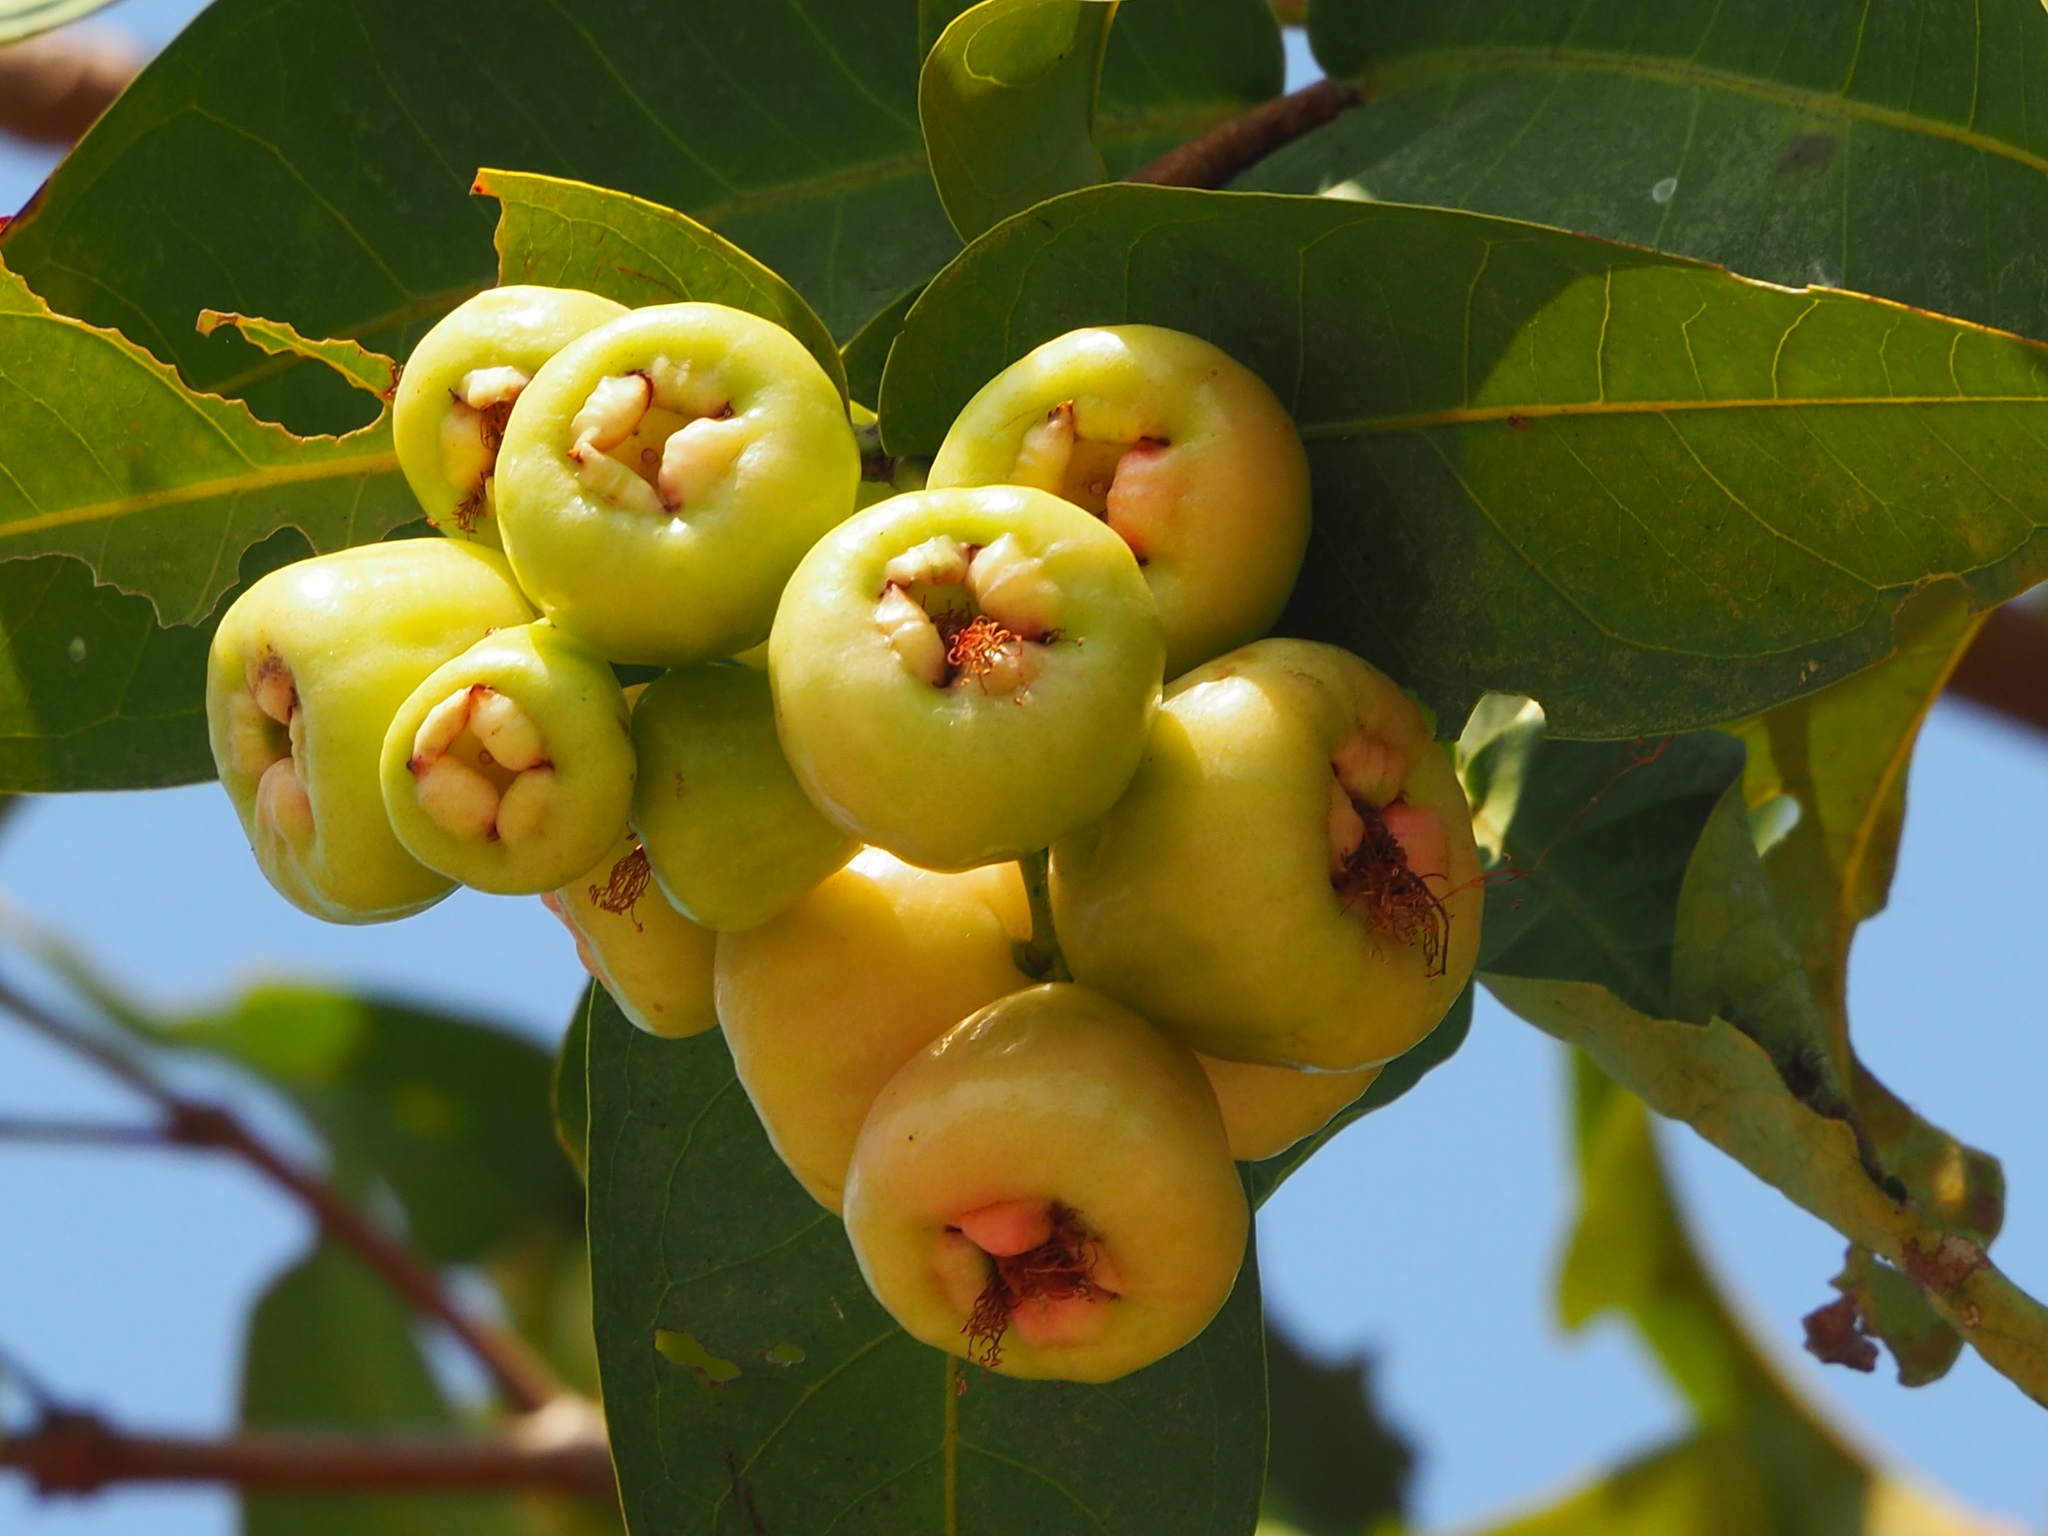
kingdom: Plantae
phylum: Tracheophyta
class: Magnoliopsida
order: Myrtales
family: Myrtaceae
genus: Syzygium
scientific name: Syzygium samarangense
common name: Semarang rose-apple
